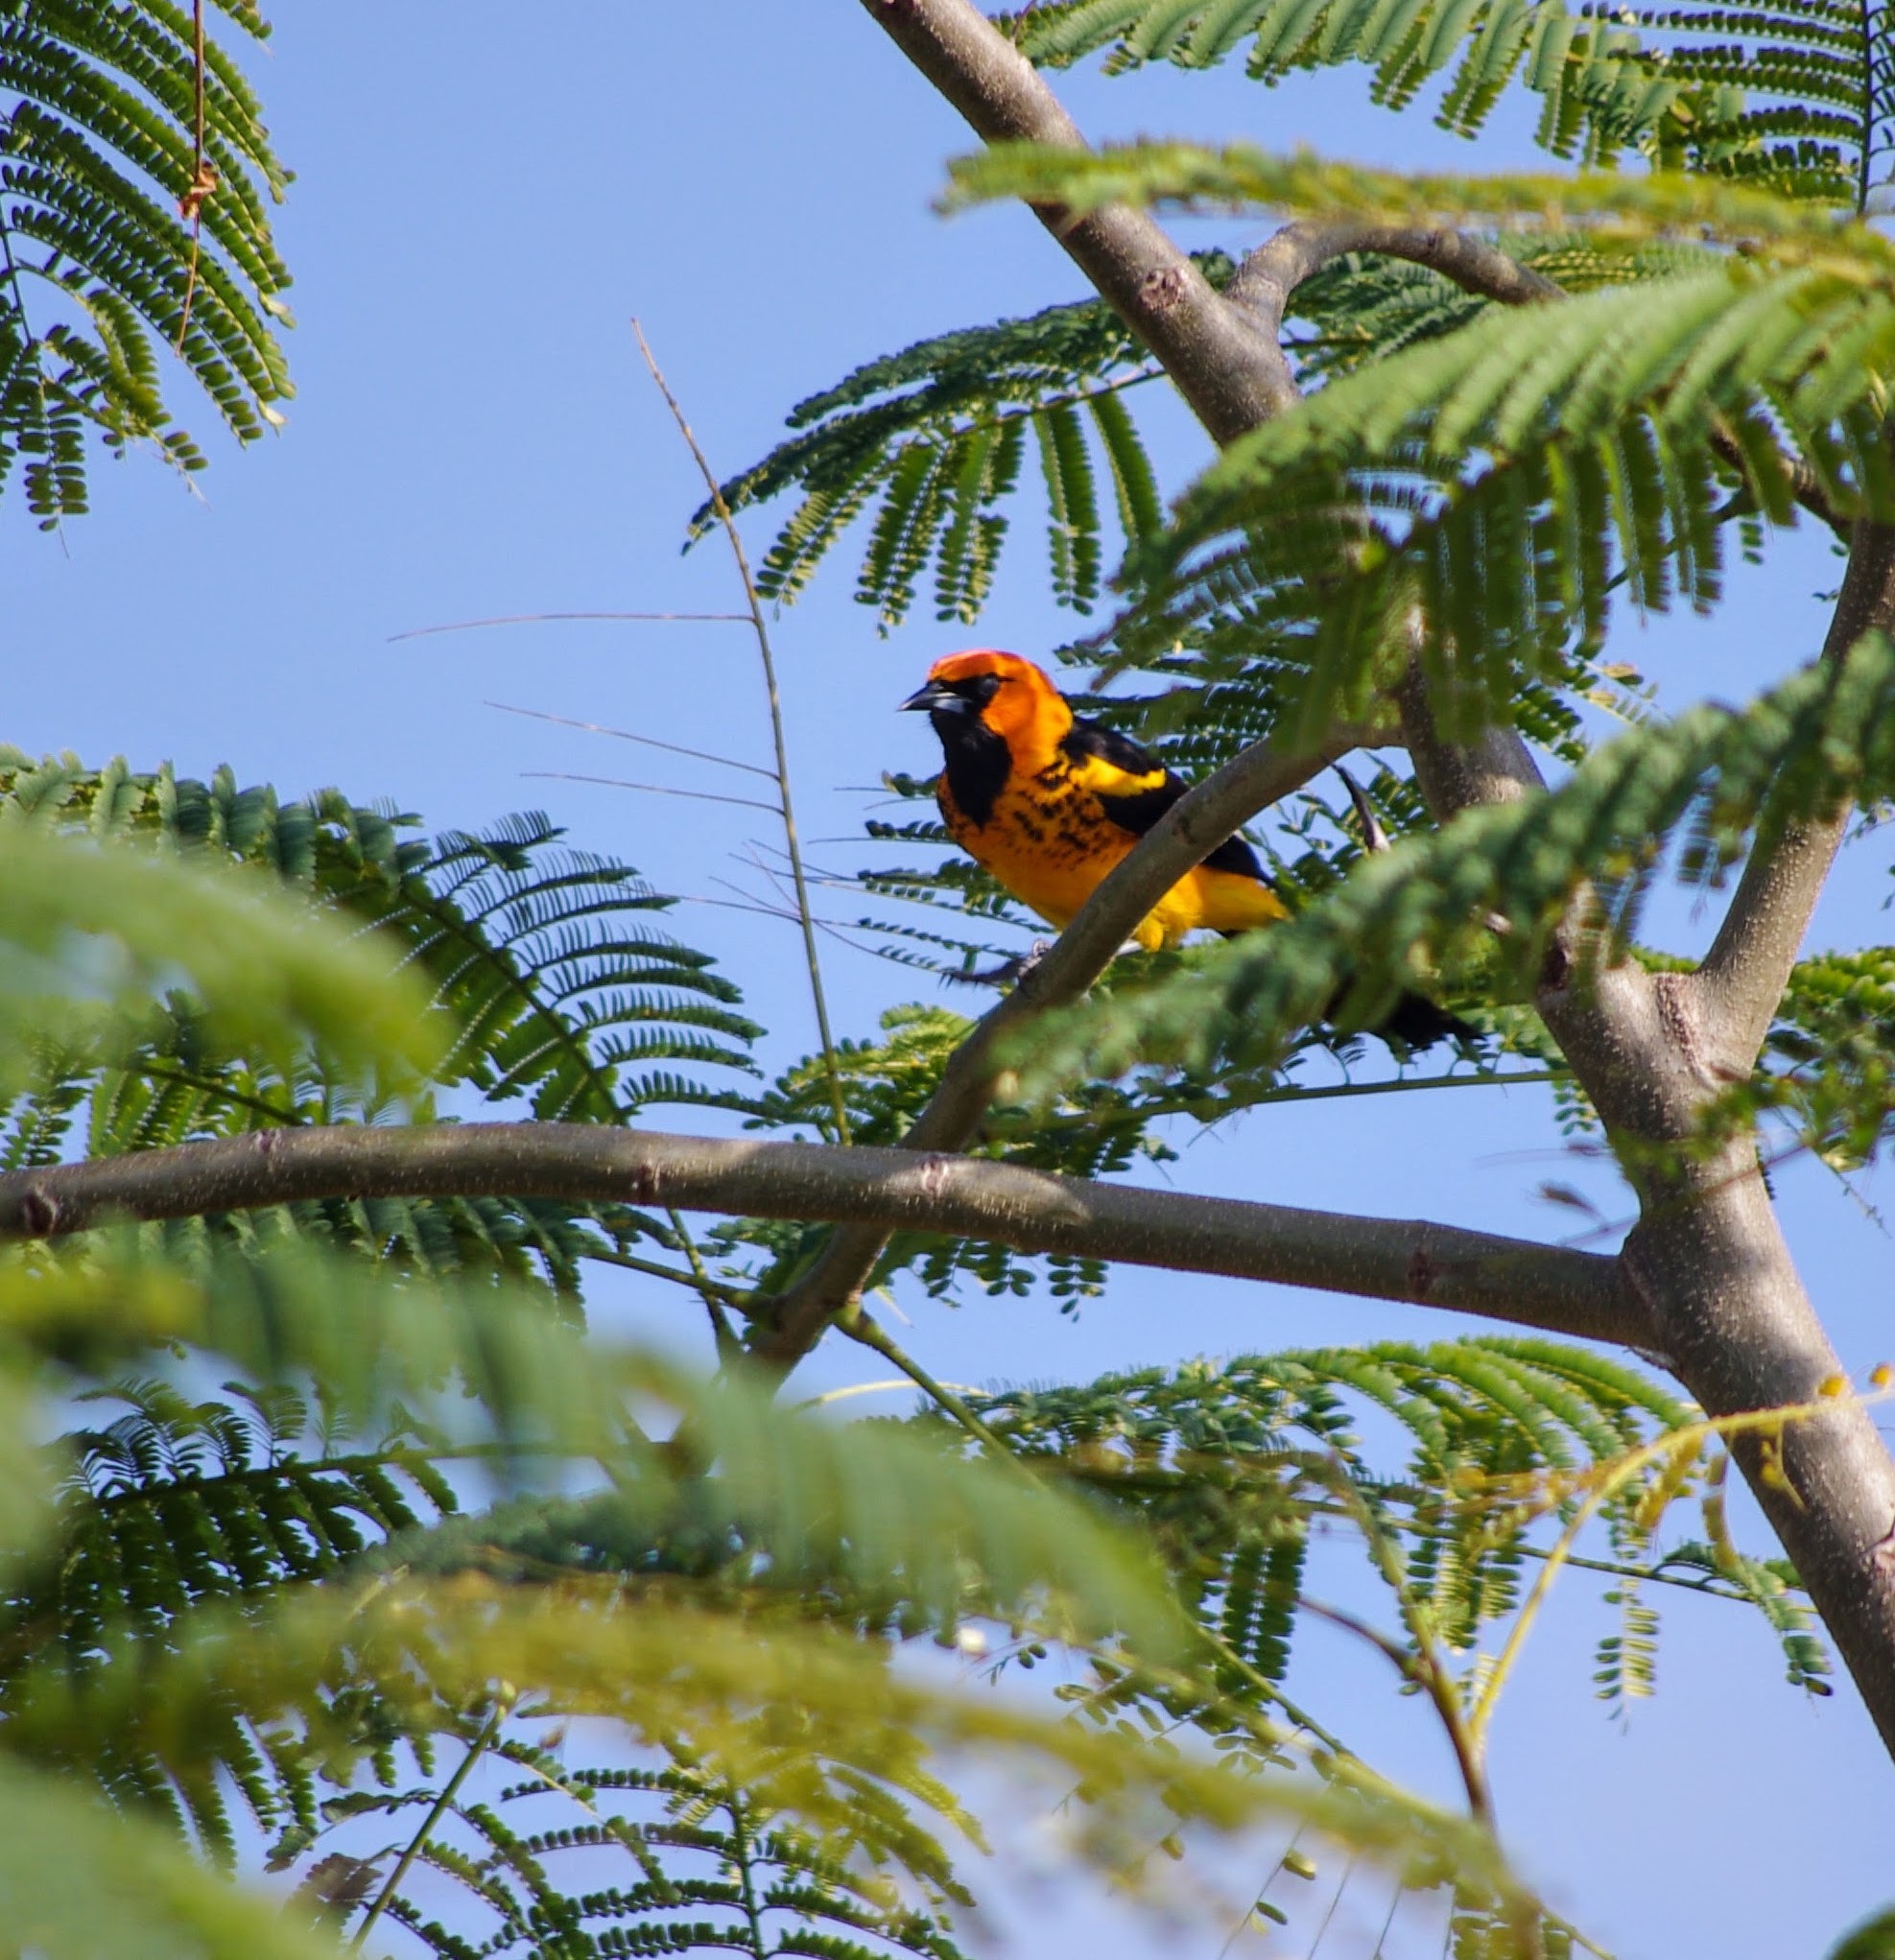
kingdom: Animalia
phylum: Chordata
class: Aves
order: Passeriformes
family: Icteridae
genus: Icterus
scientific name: Icterus pectoralis
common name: Spot-breasted oriole
